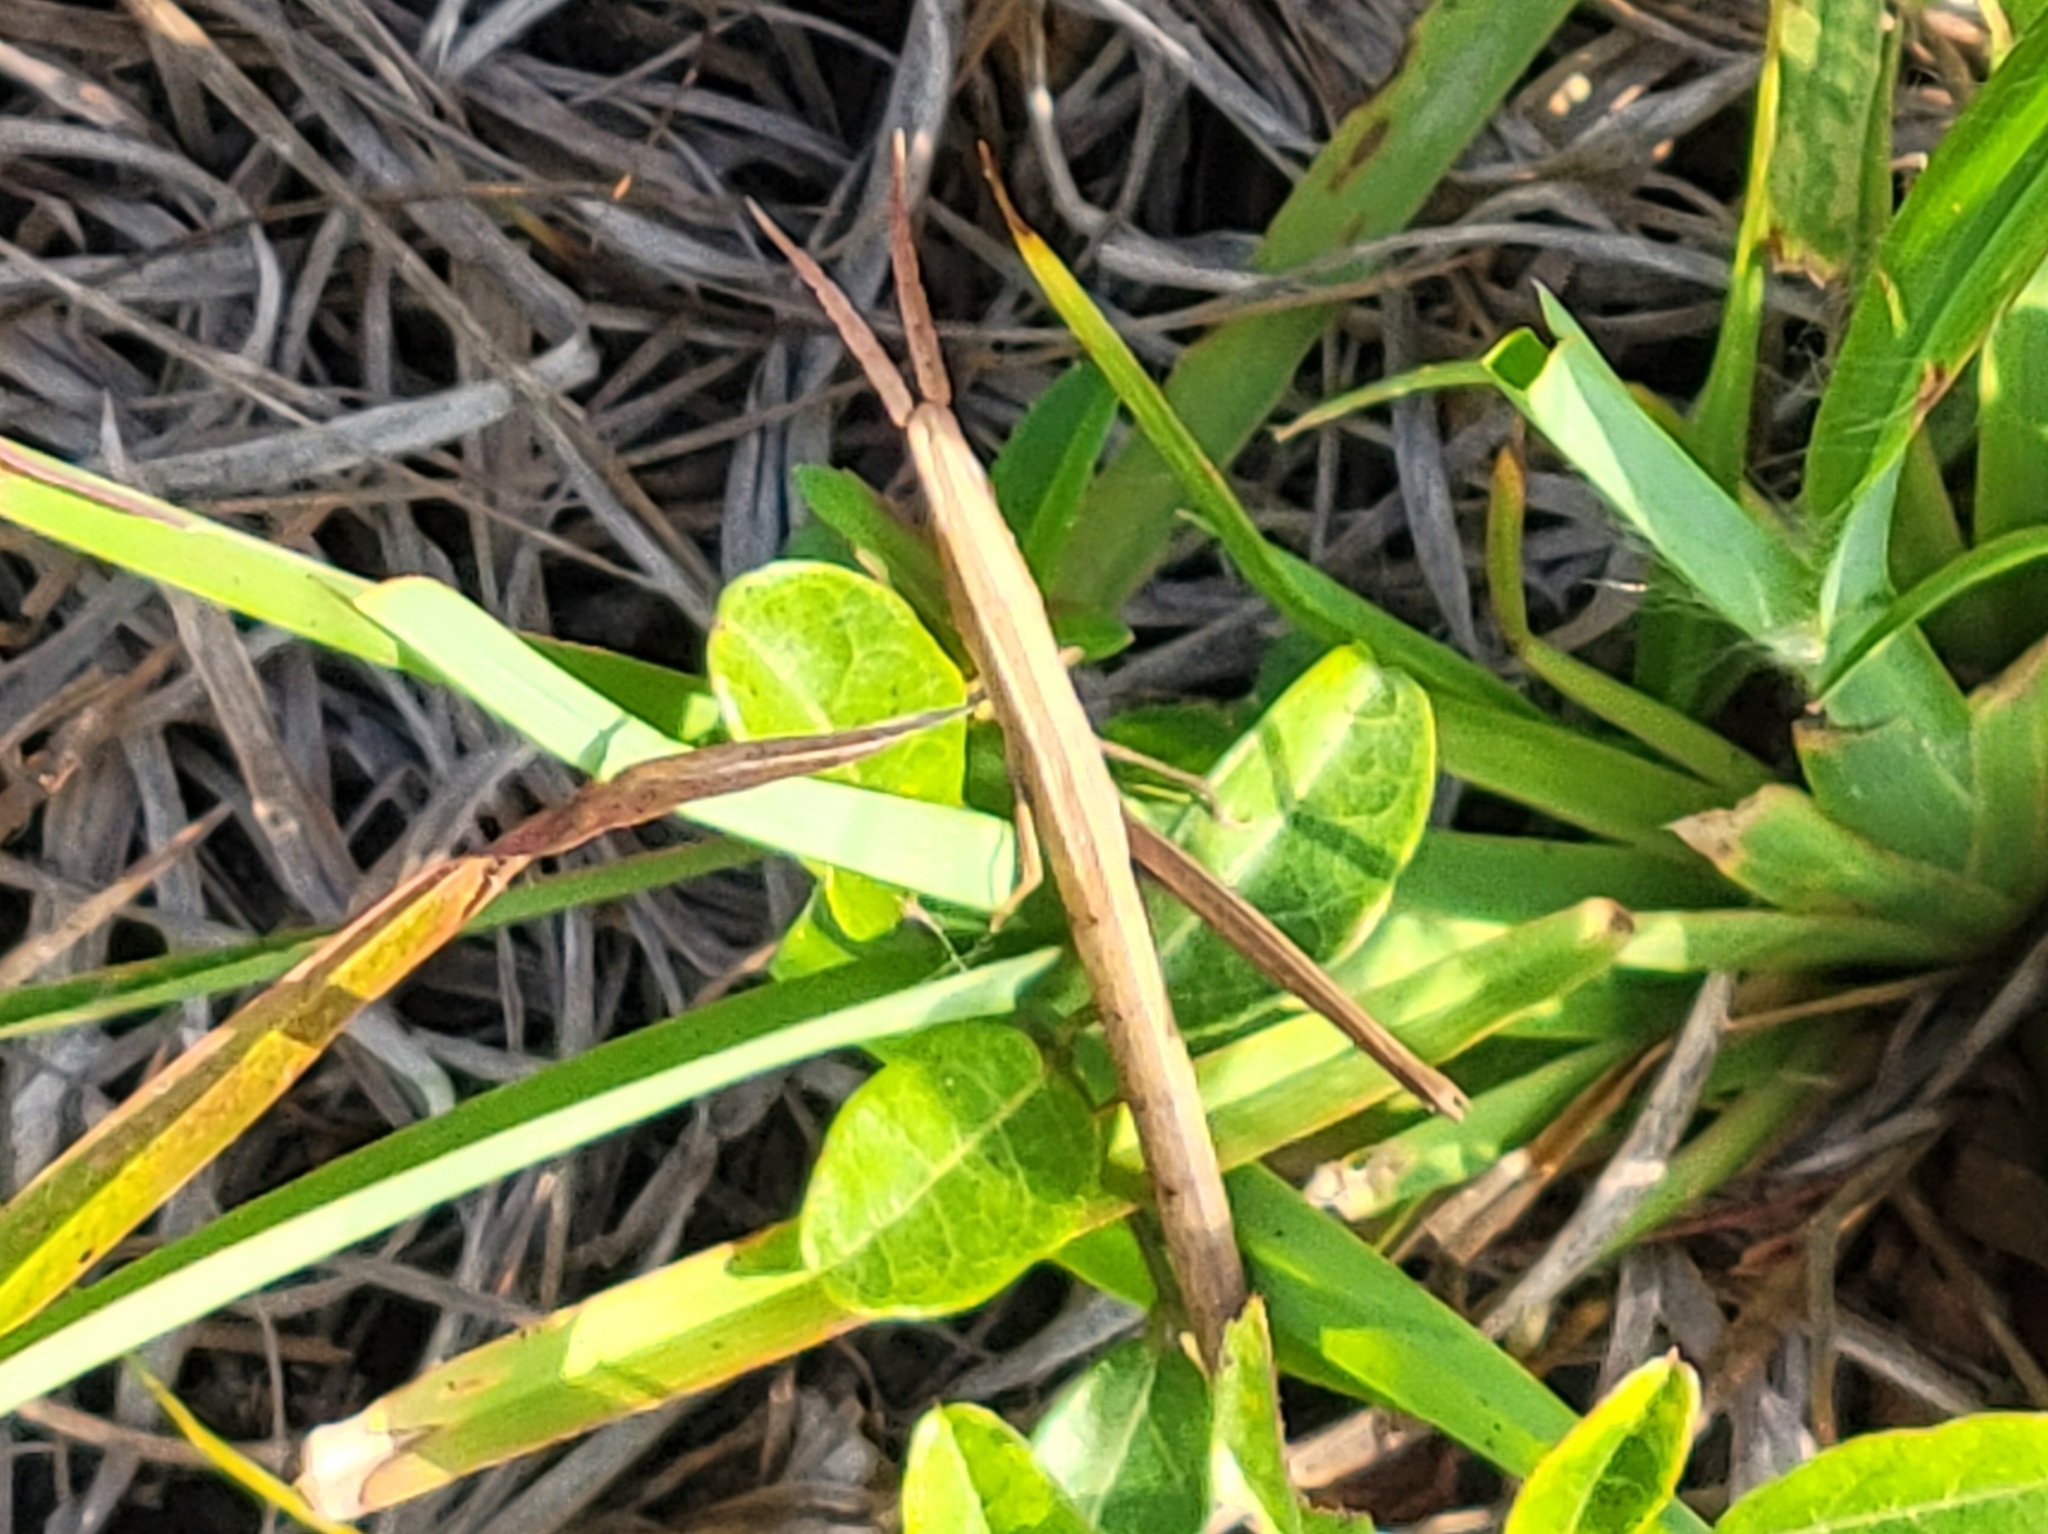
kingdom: Animalia
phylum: Arthropoda
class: Insecta
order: Orthoptera
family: Acrididae
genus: Achurum
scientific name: Achurum carinatum
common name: Long-headed toothpick grasshopper
